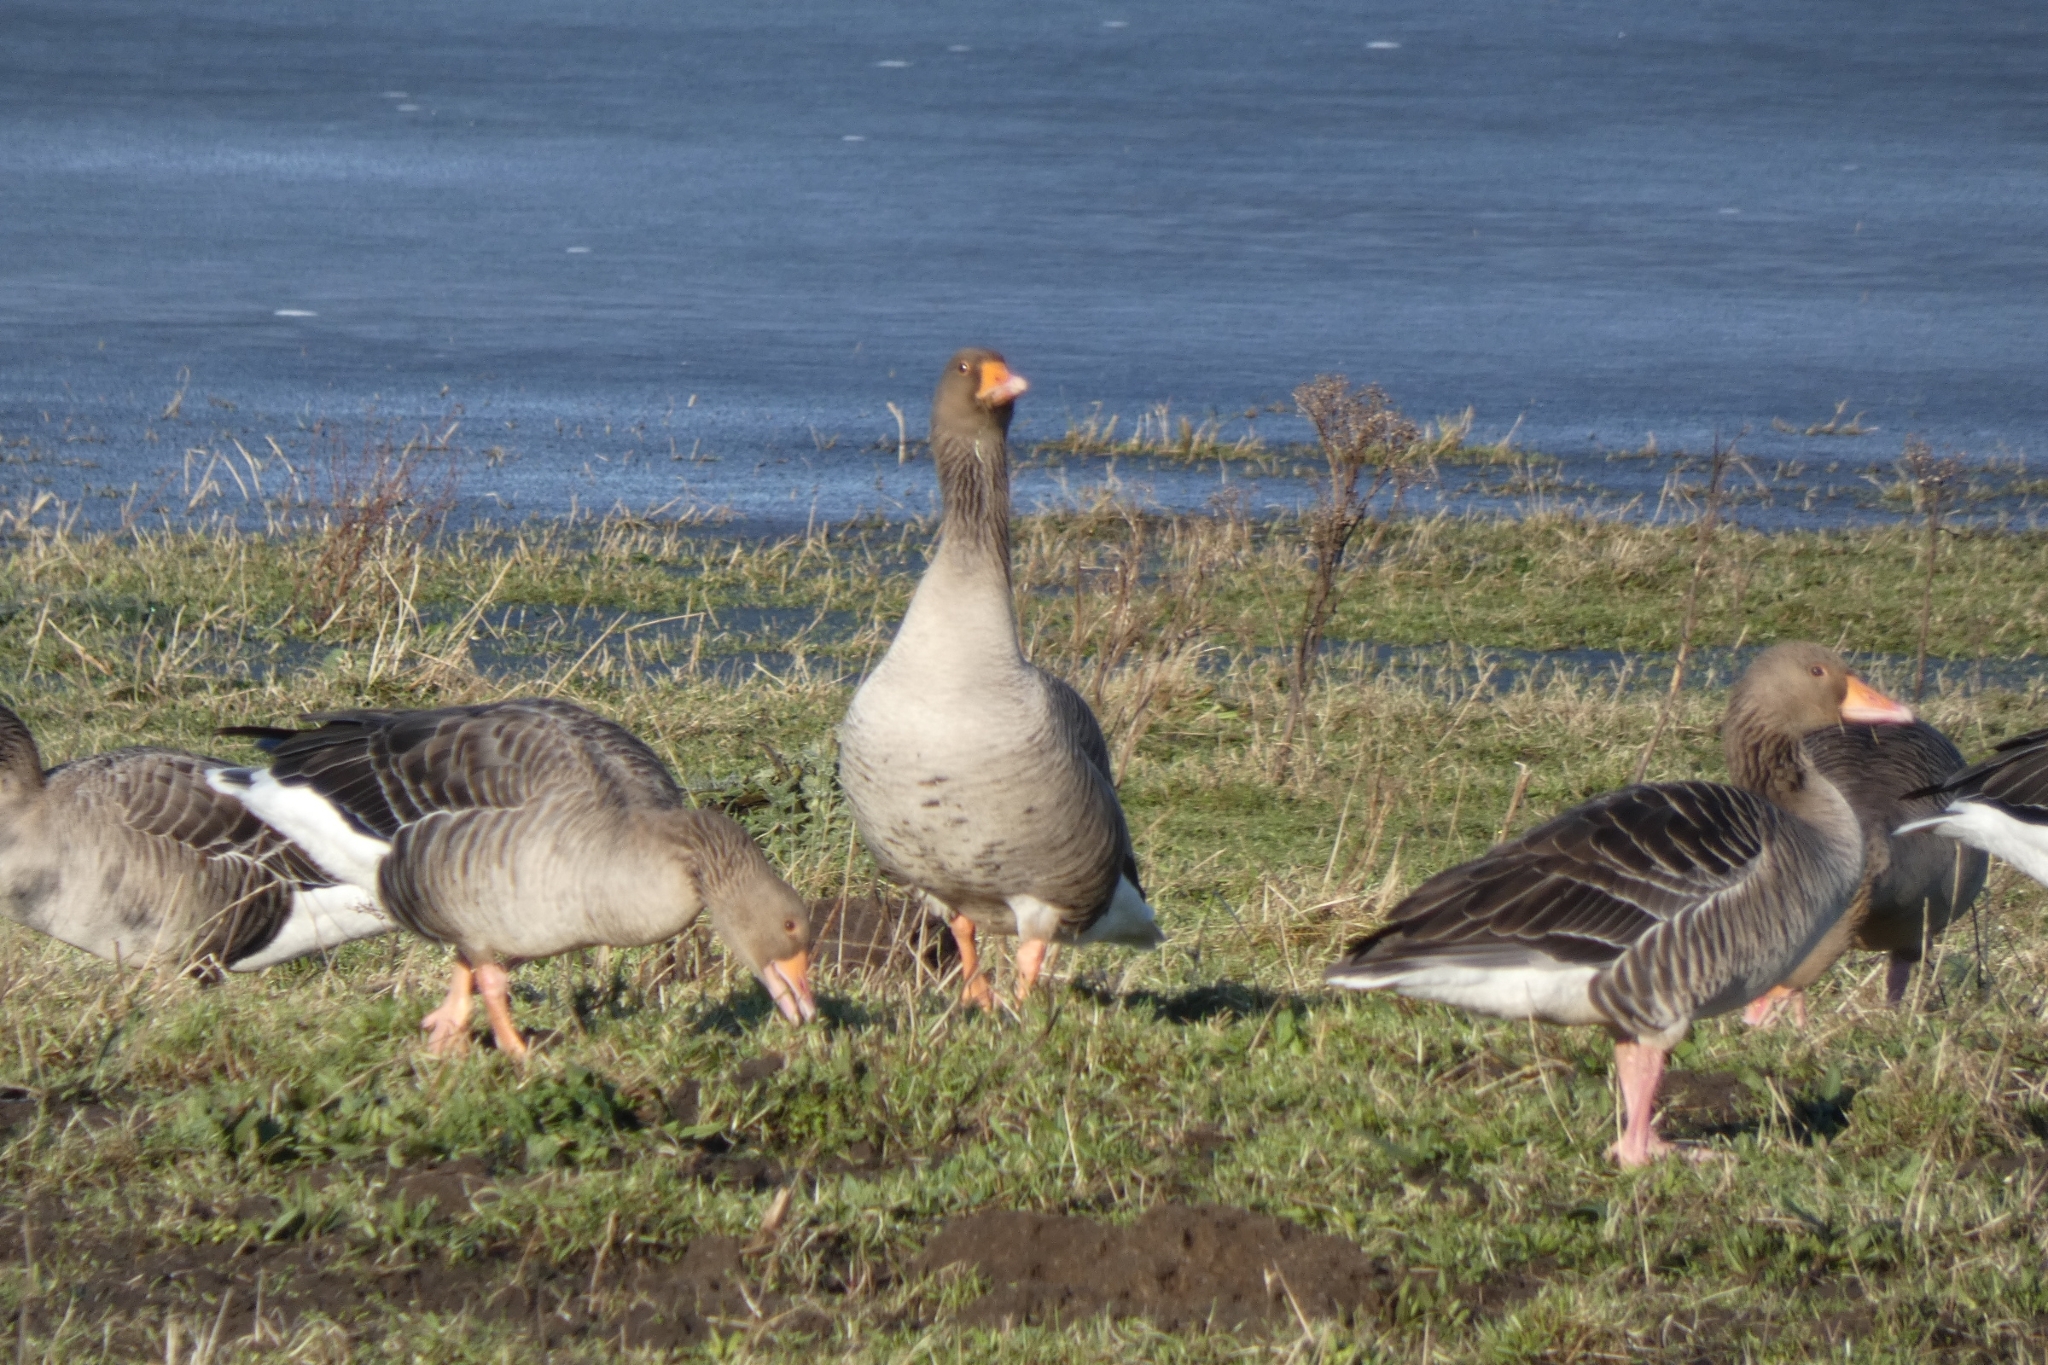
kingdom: Animalia
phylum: Chordata
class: Aves
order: Anseriformes
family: Anatidae
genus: Anser
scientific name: Anser anser
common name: Greylag goose
